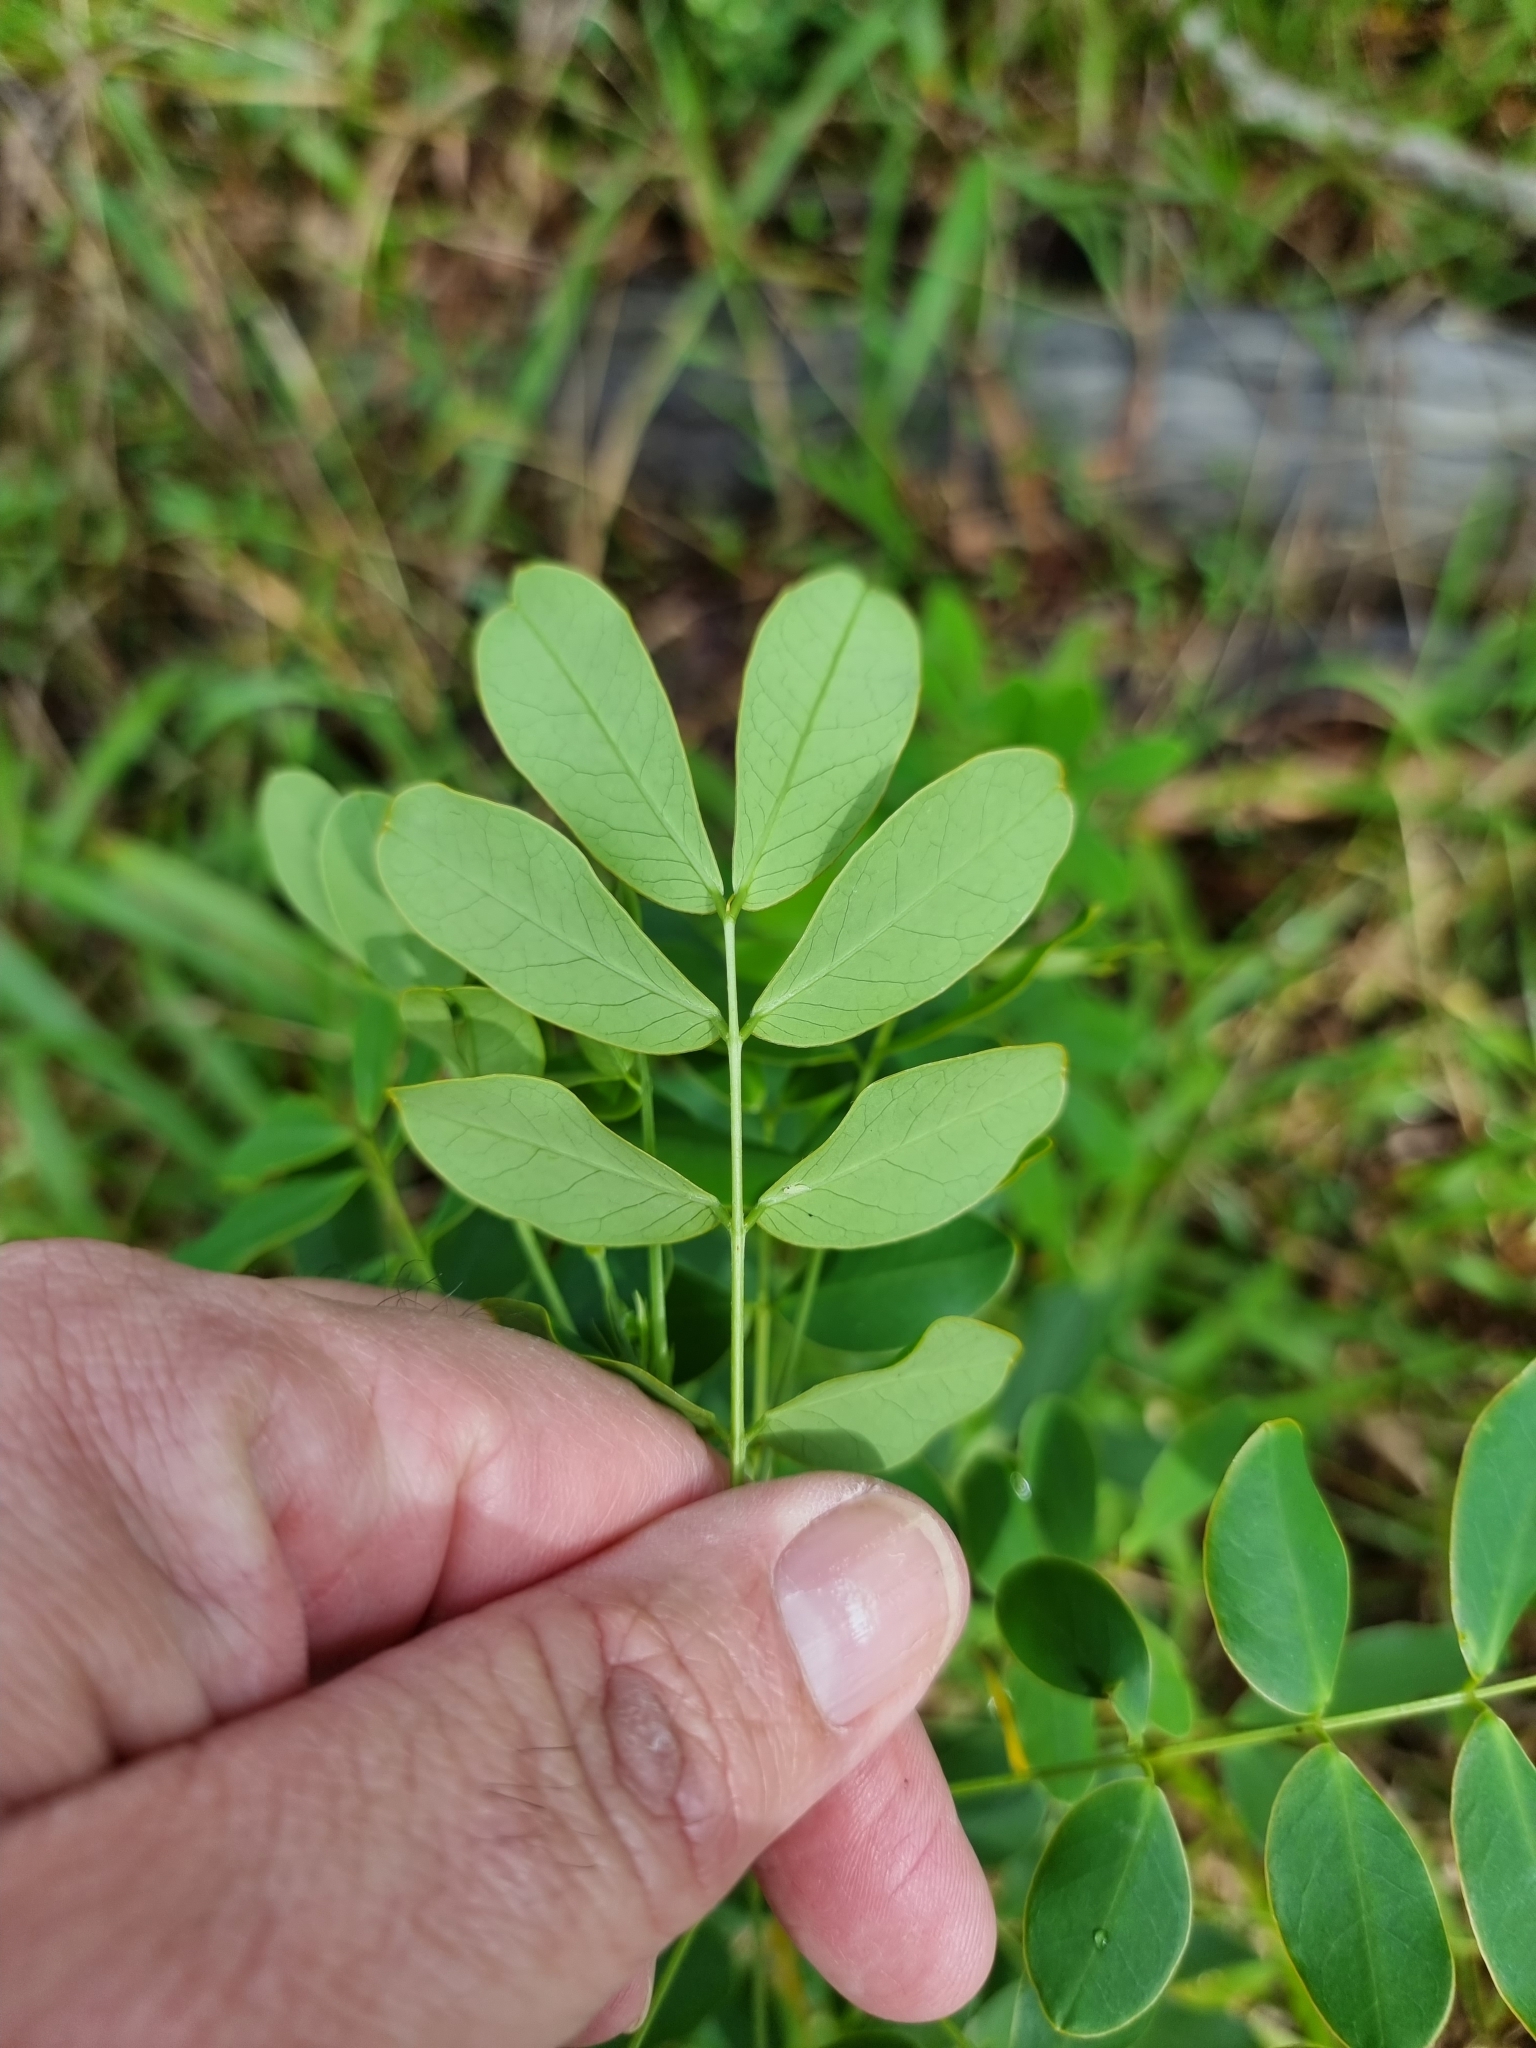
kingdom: Plantae
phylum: Tracheophyta
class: Magnoliopsida
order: Fabales
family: Fabaceae
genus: Senna
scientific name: Senna pendula
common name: Easter cassia
